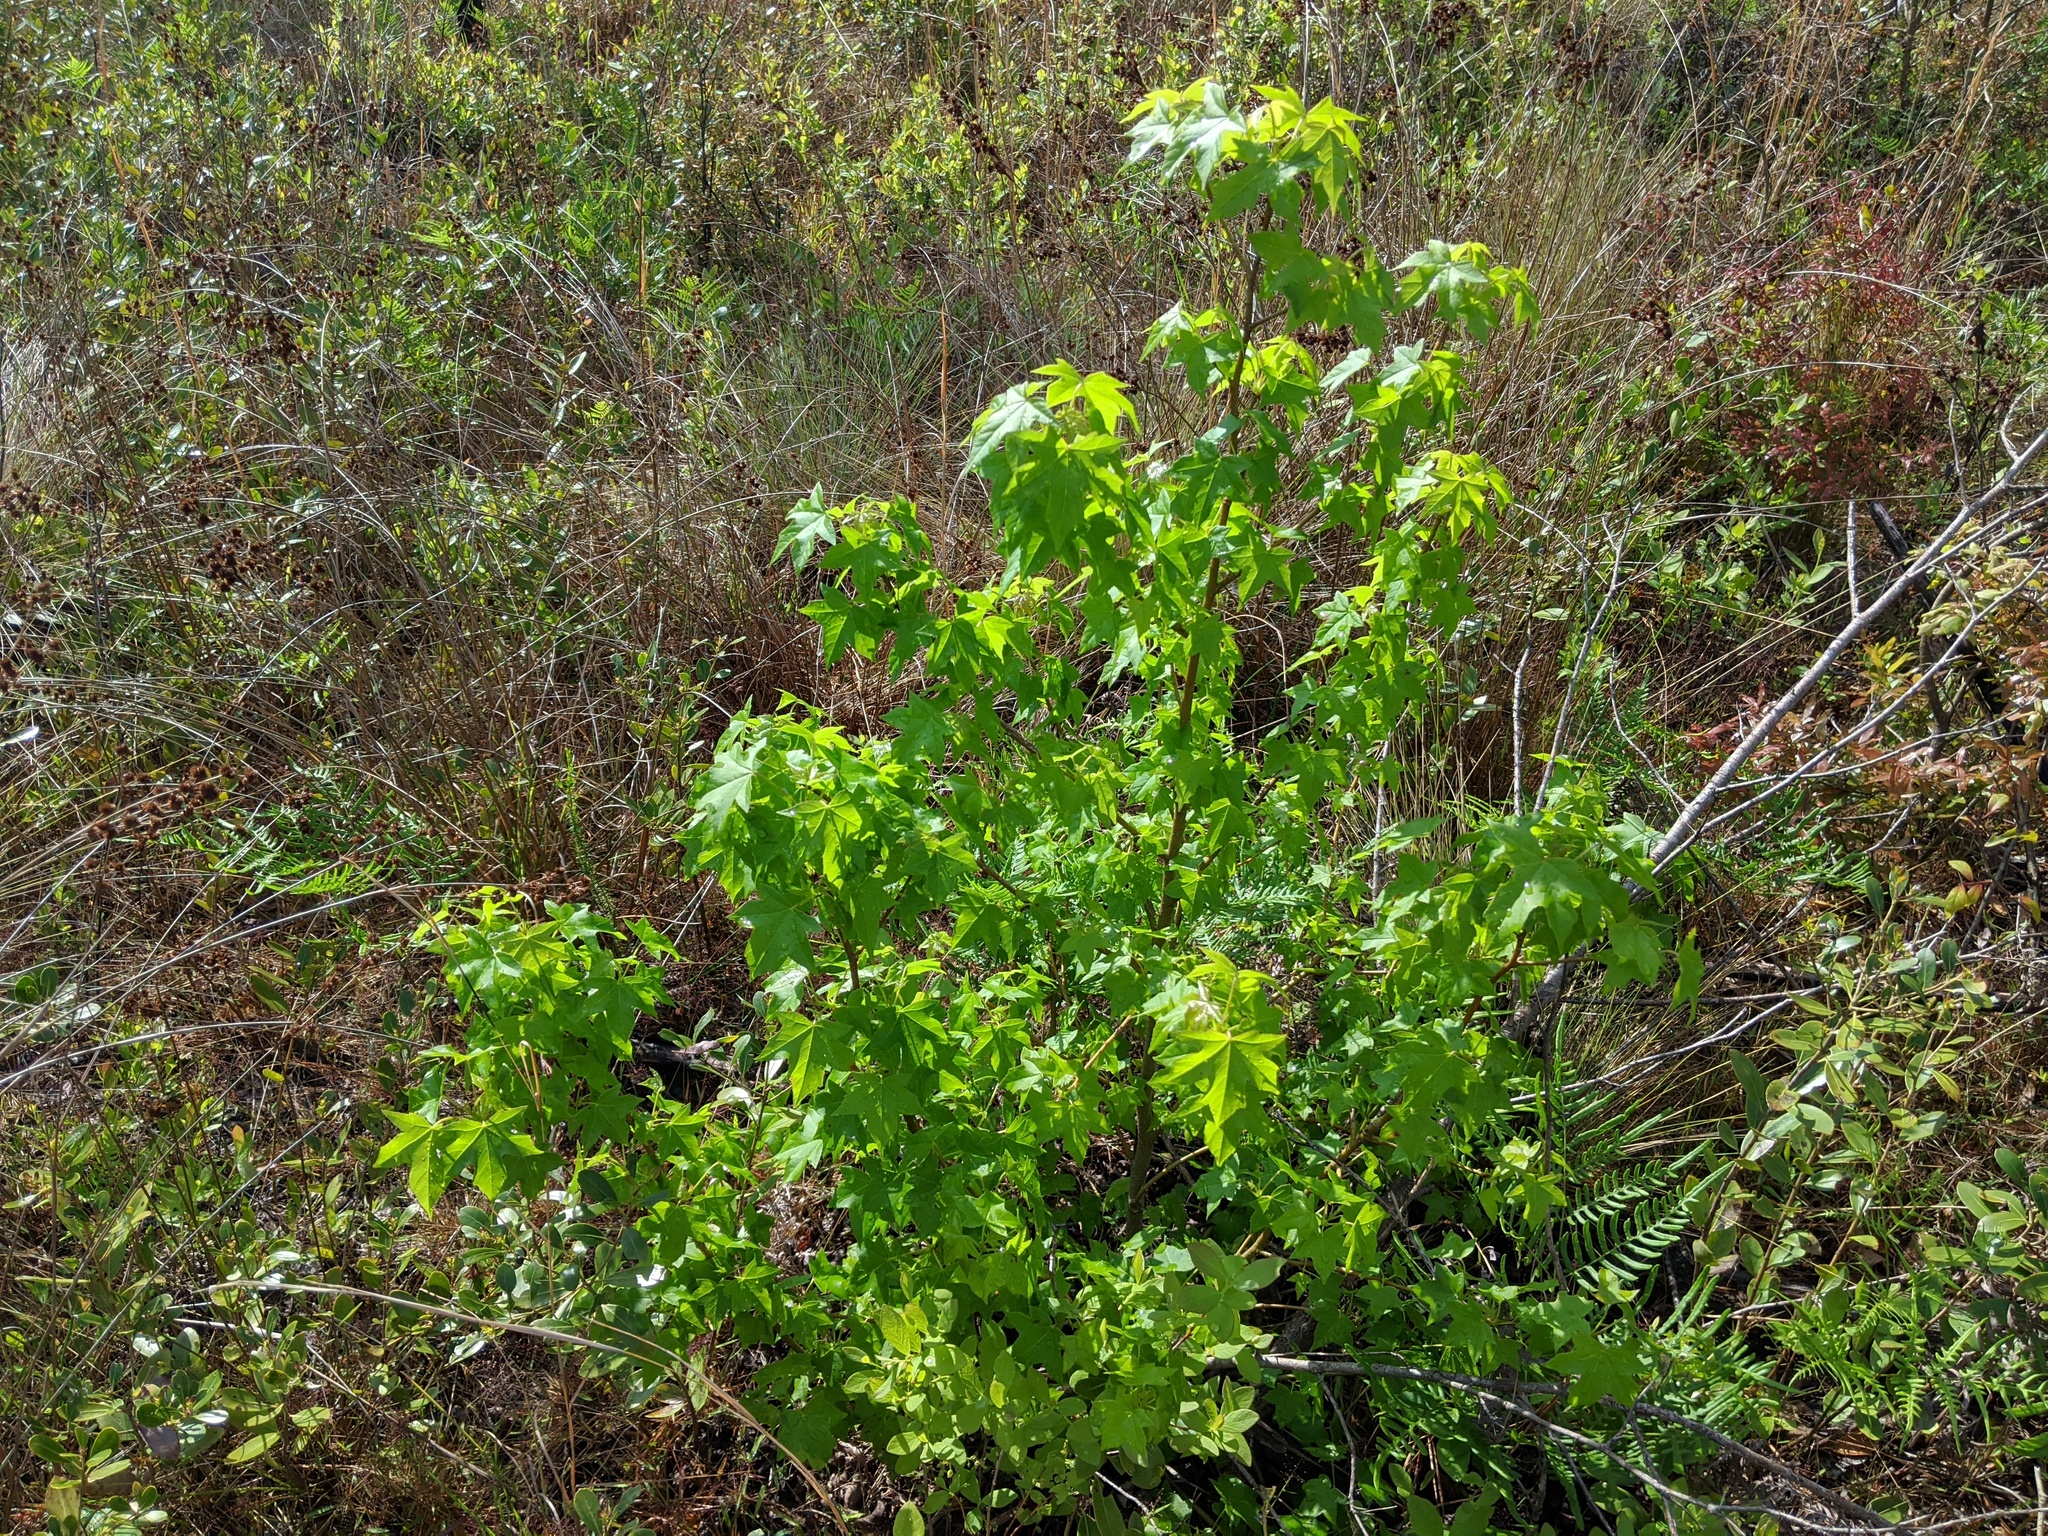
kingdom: Plantae
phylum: Tracheophyta
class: Magnoliopsida
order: Saxifragales
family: Altingiaceae
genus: Liquidambar
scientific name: Liquidambar styraciflua
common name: Sweet gum
